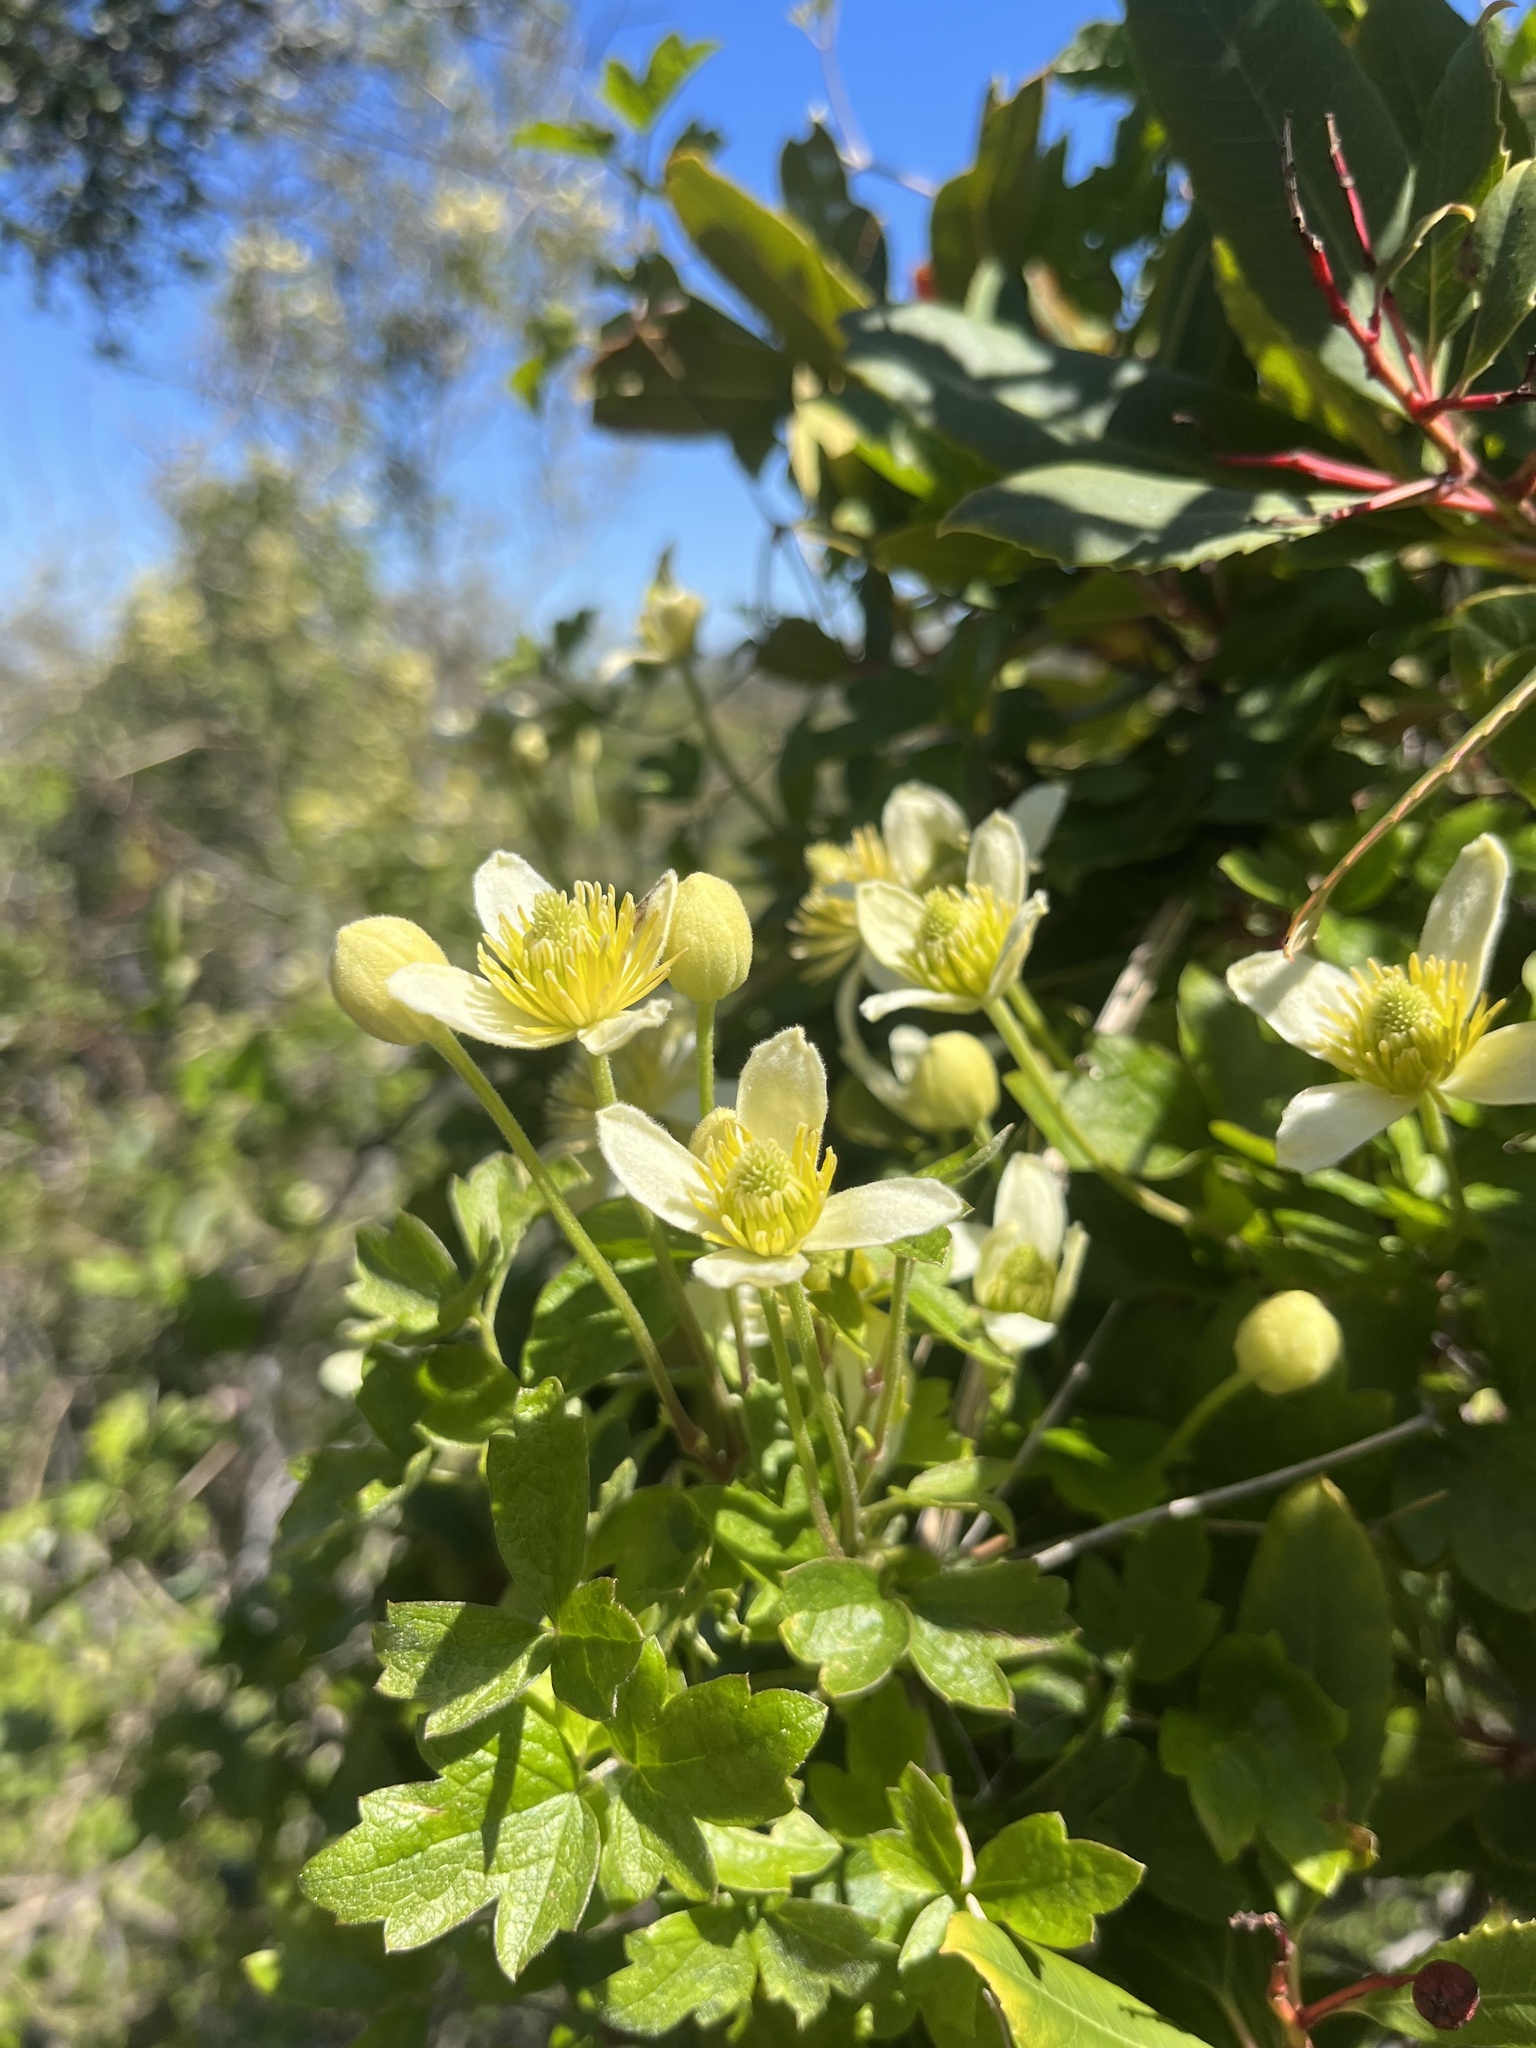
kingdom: Plantae
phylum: Tracheophyta
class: Magnoliopsida
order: Ranunculales
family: Ranunculaceae
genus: Clematis
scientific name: Clematis lasiantha
